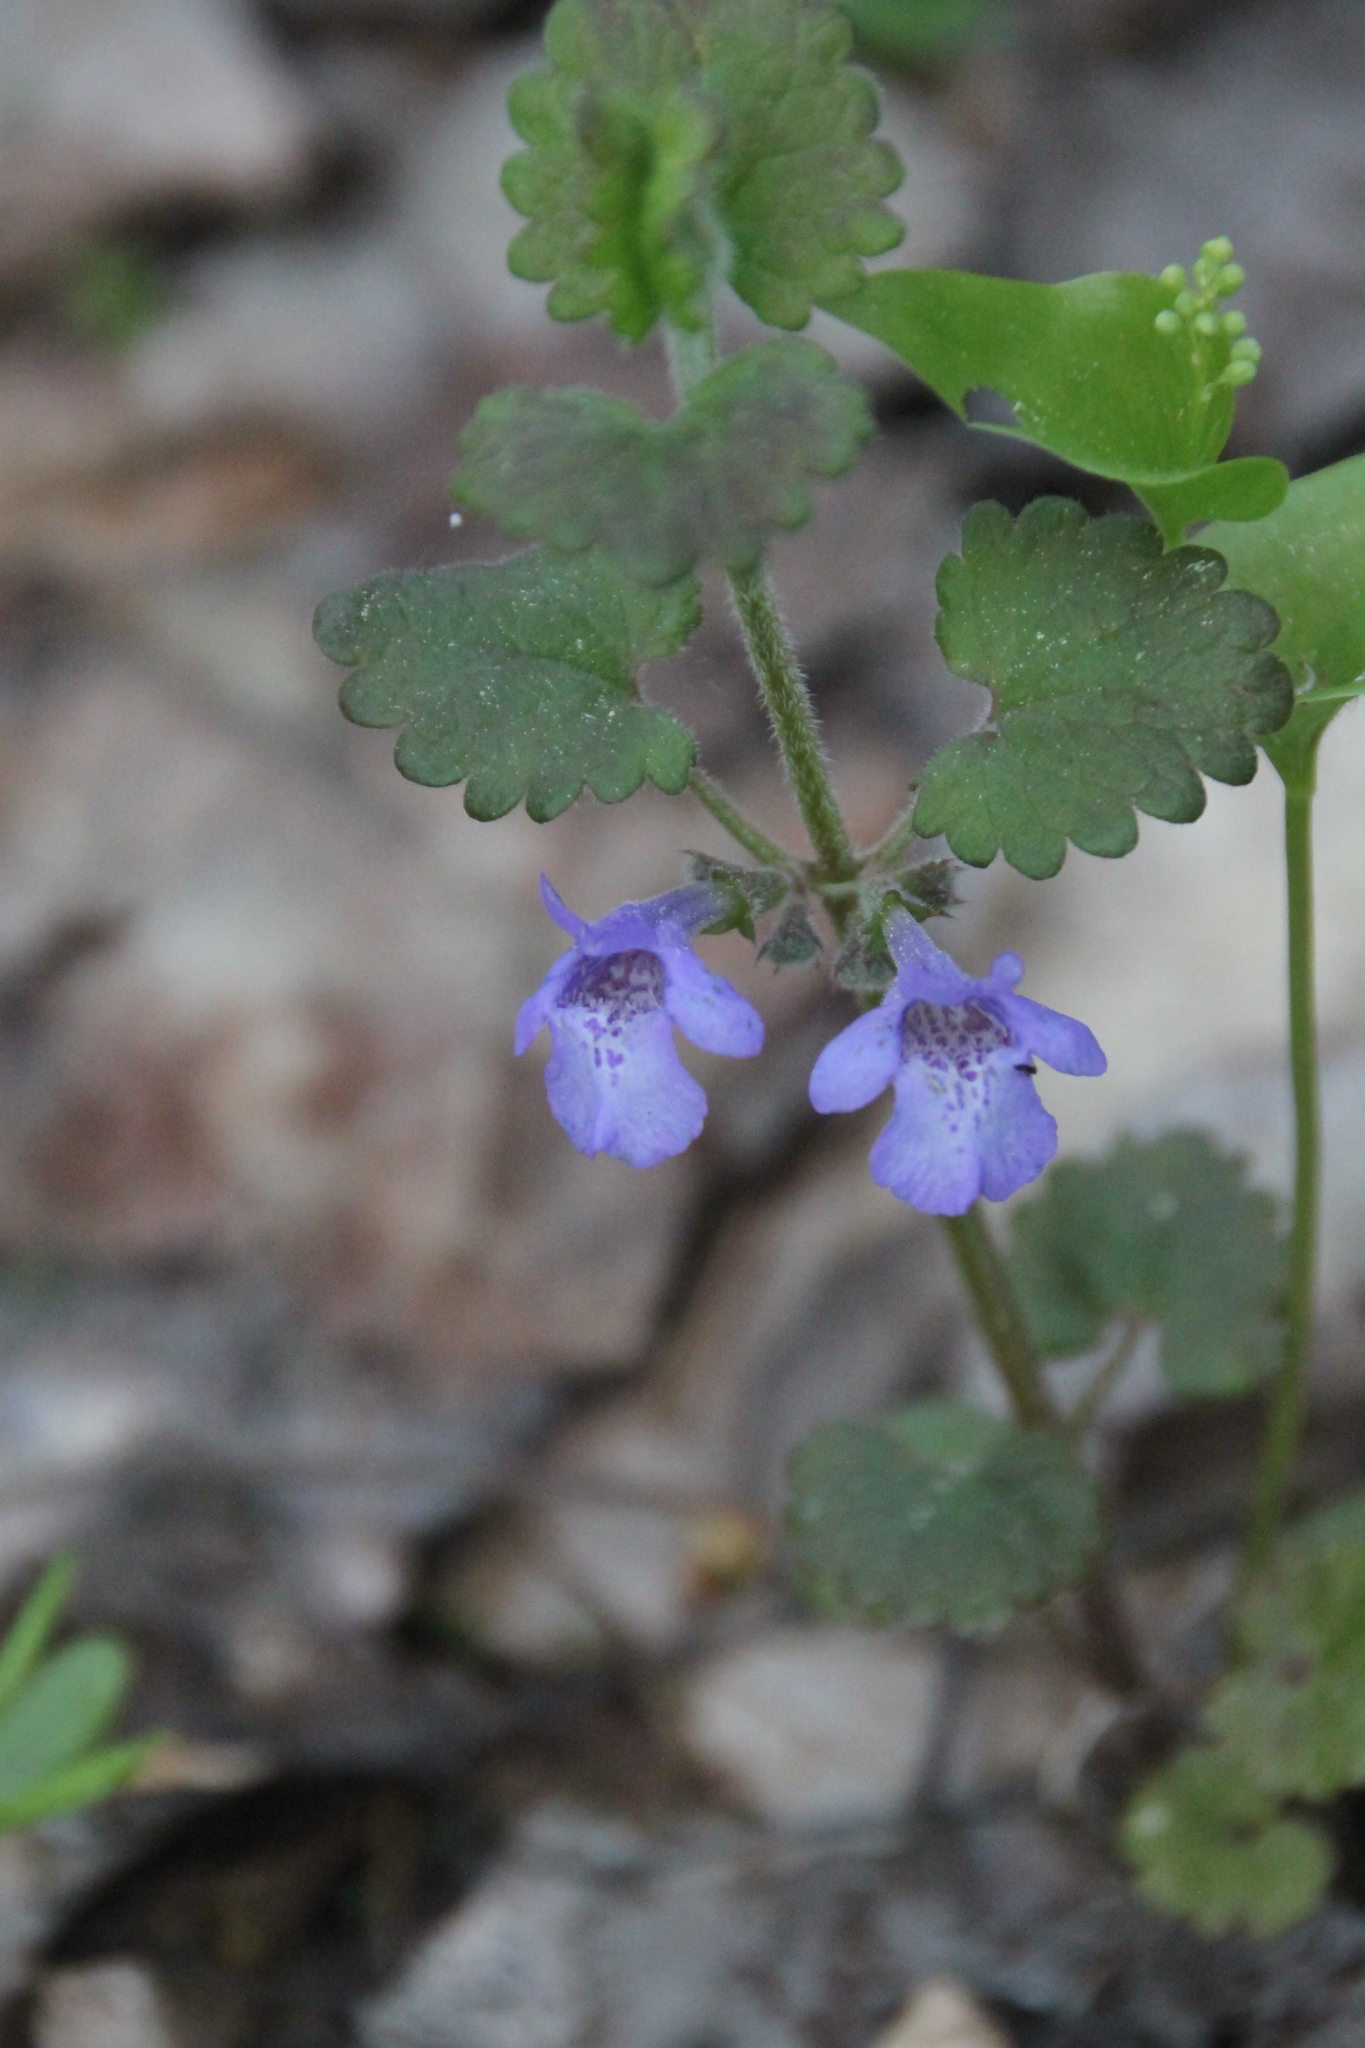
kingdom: Plantae
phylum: Tracheophyta
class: Magnoliopsida
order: Lamiales
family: Lamiaceae
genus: Glechoma
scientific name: Glechoma hederacea
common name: Ground ivy
